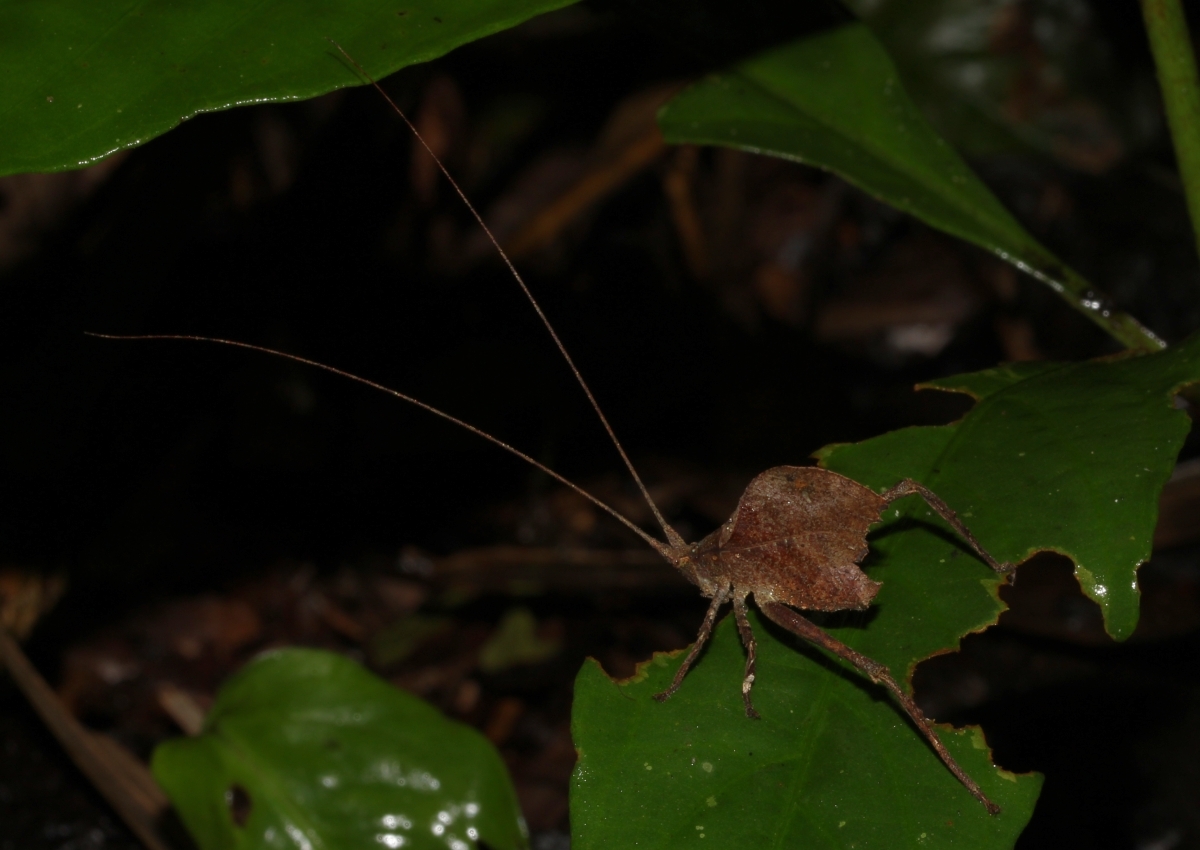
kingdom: Animalia
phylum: Arthropoda
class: Insecta
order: Orthoptera
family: Tettigoniidae
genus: Typophyllum
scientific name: Typophyllum
